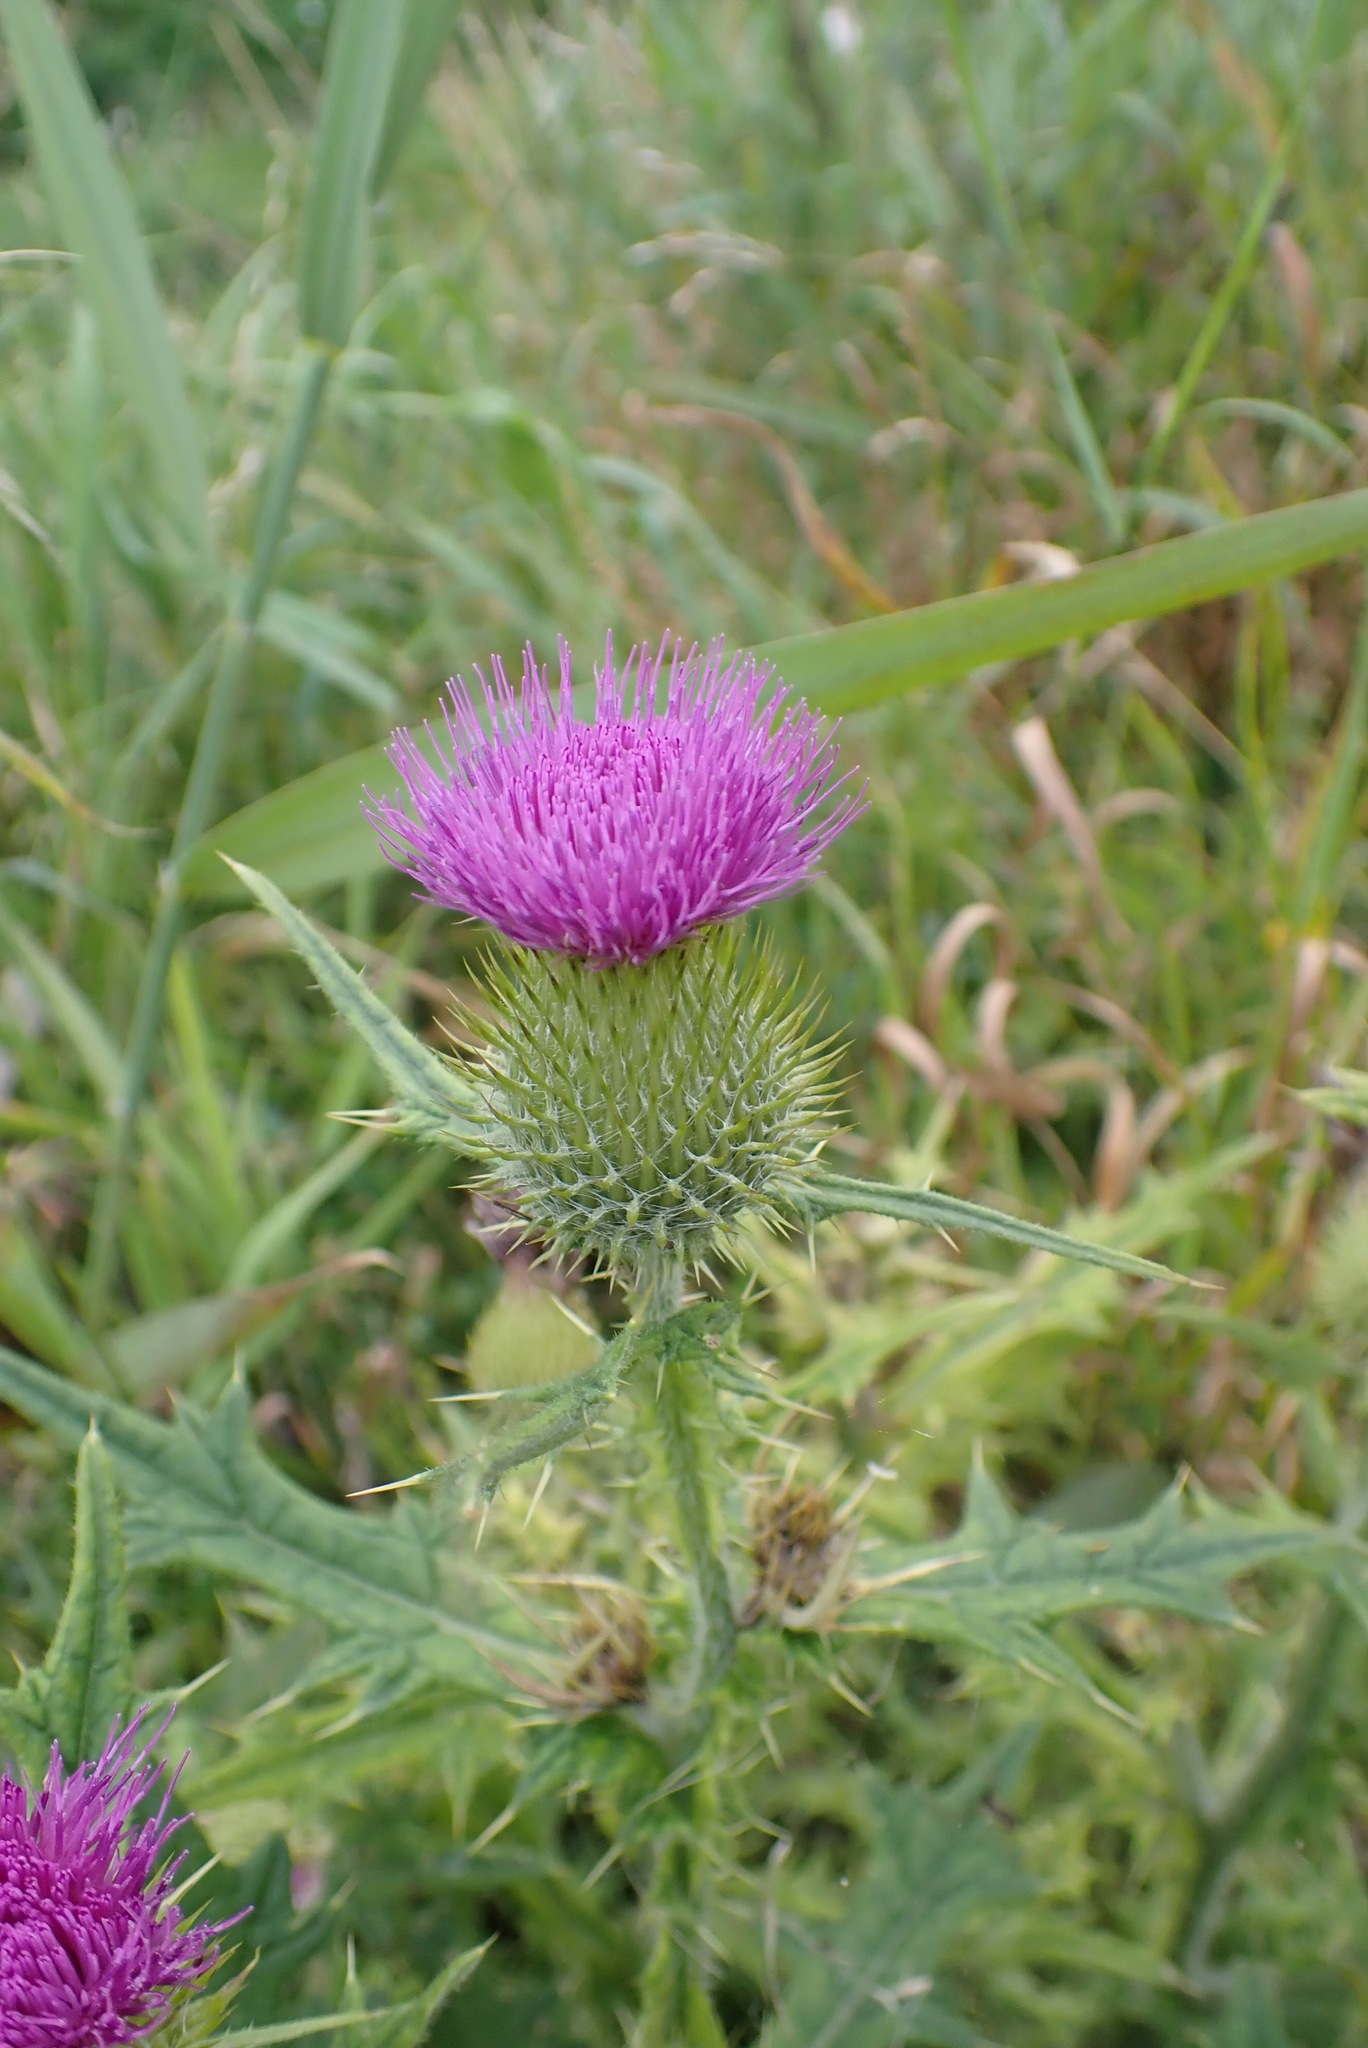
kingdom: Plantae
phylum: Tracheophyta
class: Magnoliopsida
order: Asterales
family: Asteraceae
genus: Cirsium
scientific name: Cirsium vulgare
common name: Bull thistle
